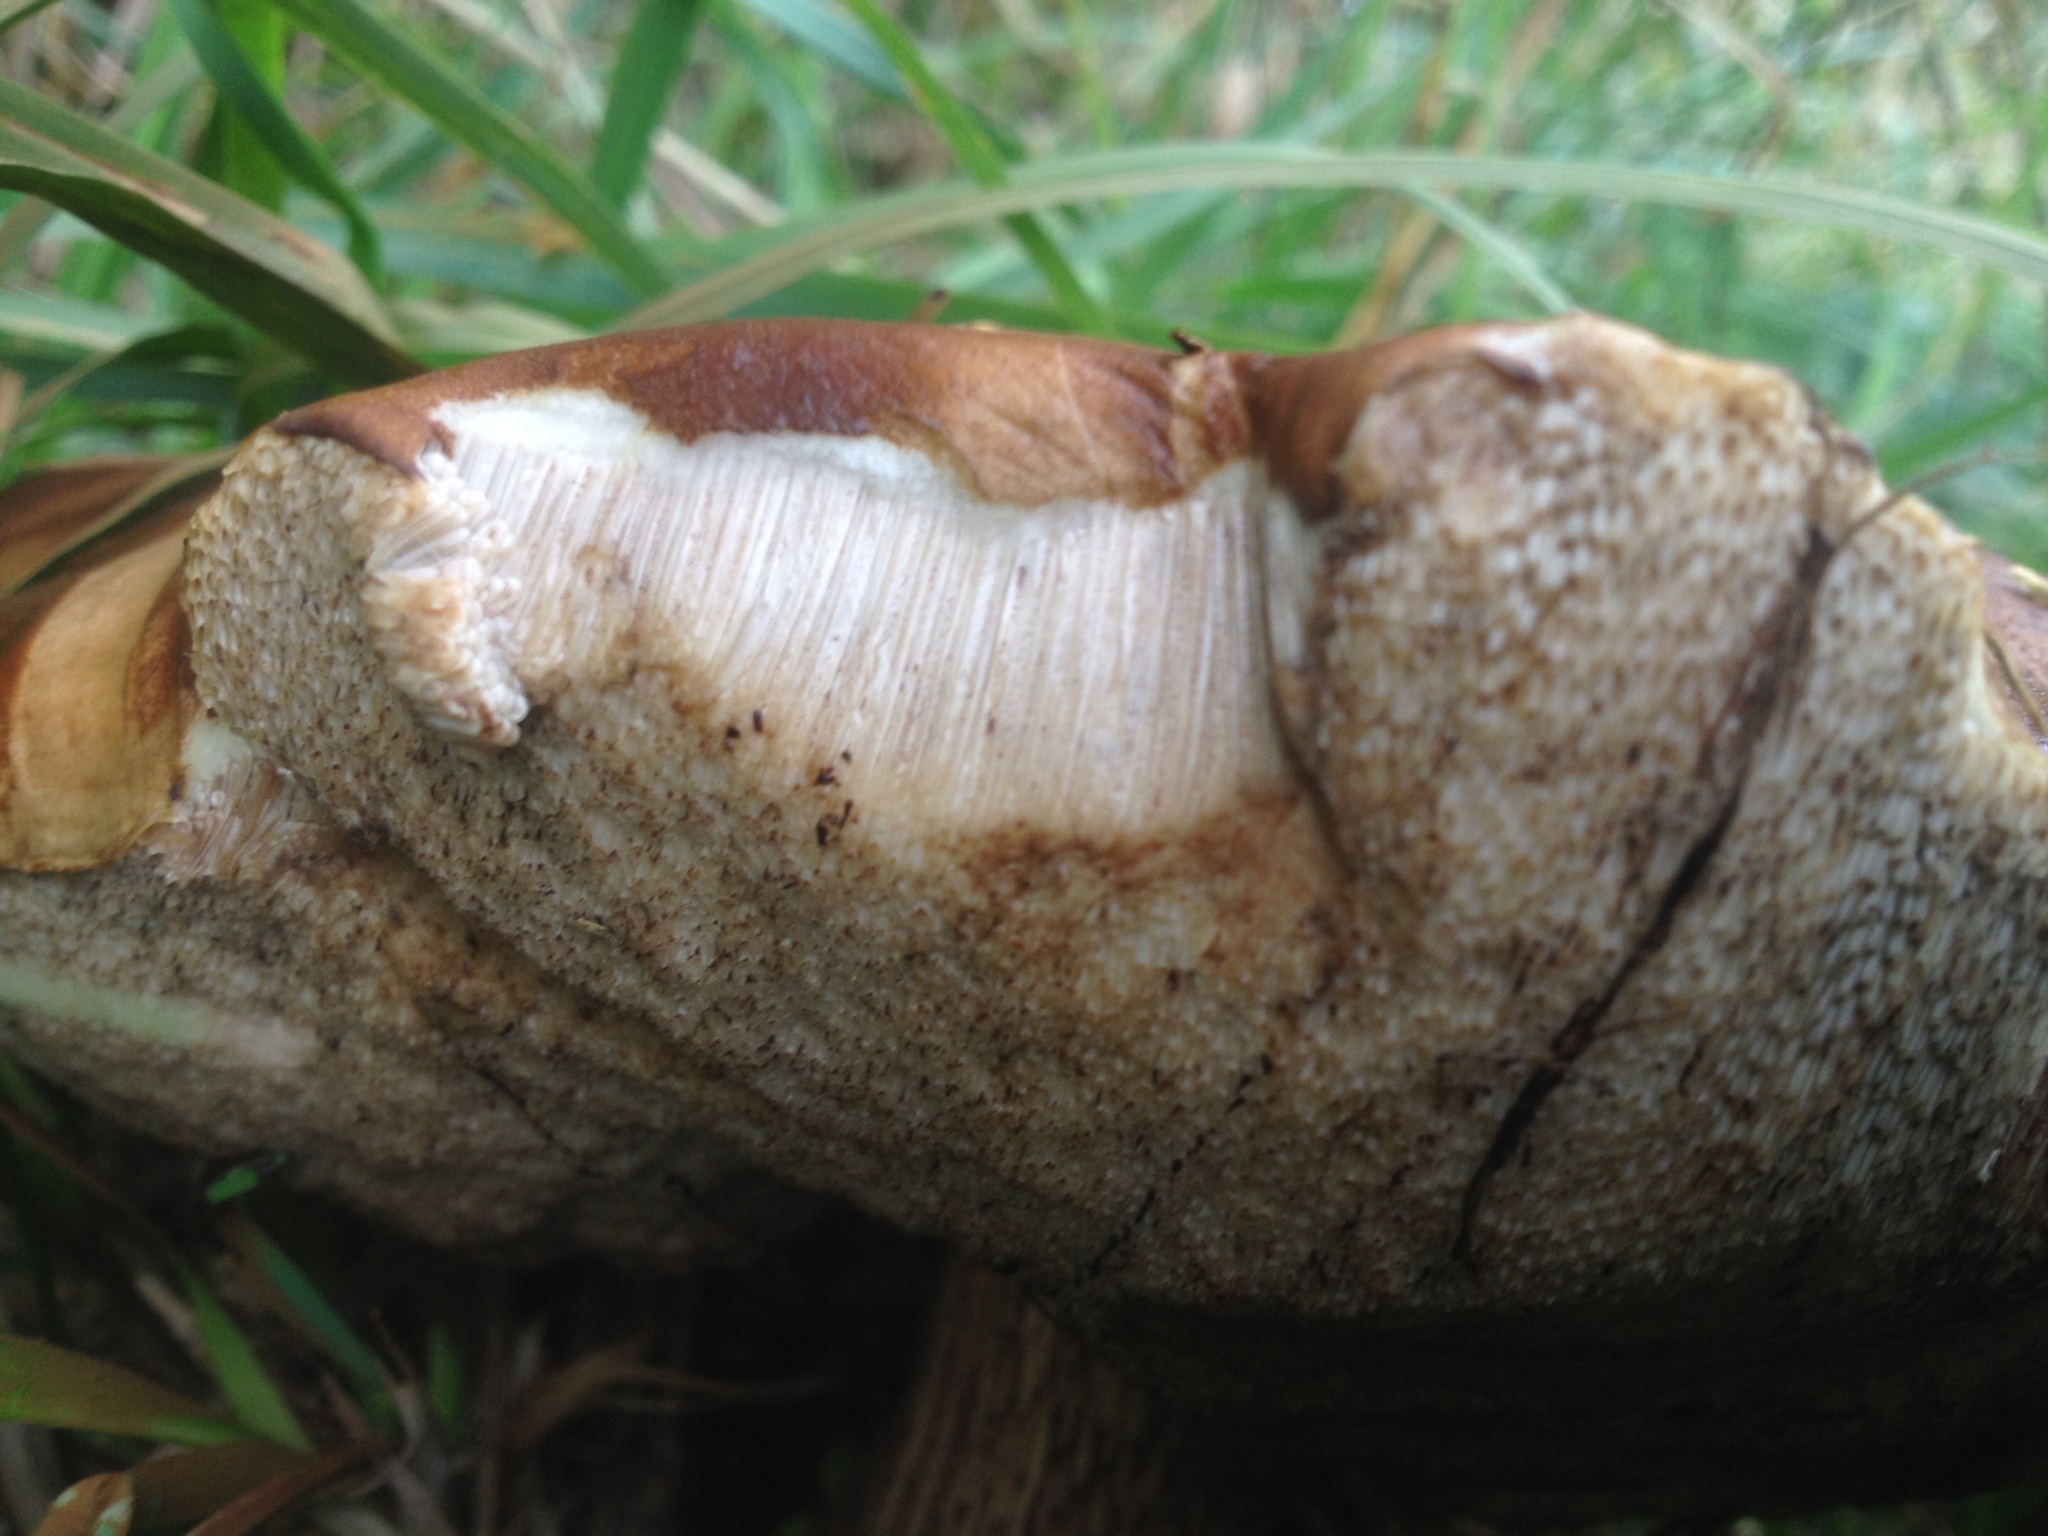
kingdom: Fungi
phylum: Basidiomycota
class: Agaricomycetes
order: Boletales
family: Boletaceae
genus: Leccinum
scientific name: Leccinum scabrum
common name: Blushing bolete
